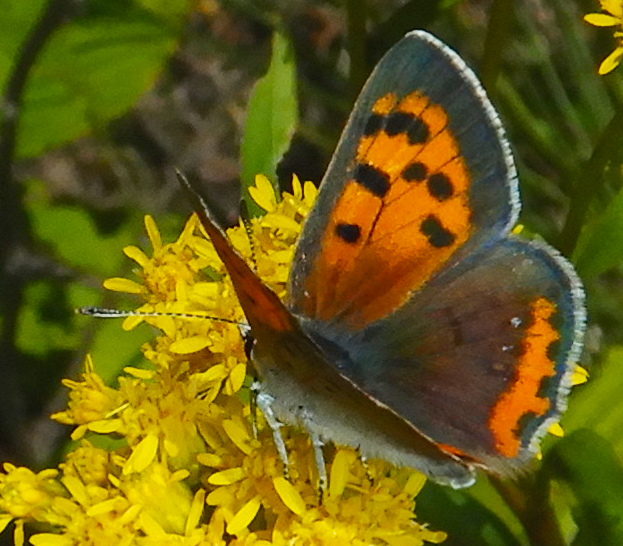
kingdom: Animalia
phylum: Arthropoda
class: Insecta
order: Lepidoptera
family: Lycaenidae
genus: Lycaena
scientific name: Lycaena hypophlaeas
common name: American copper
